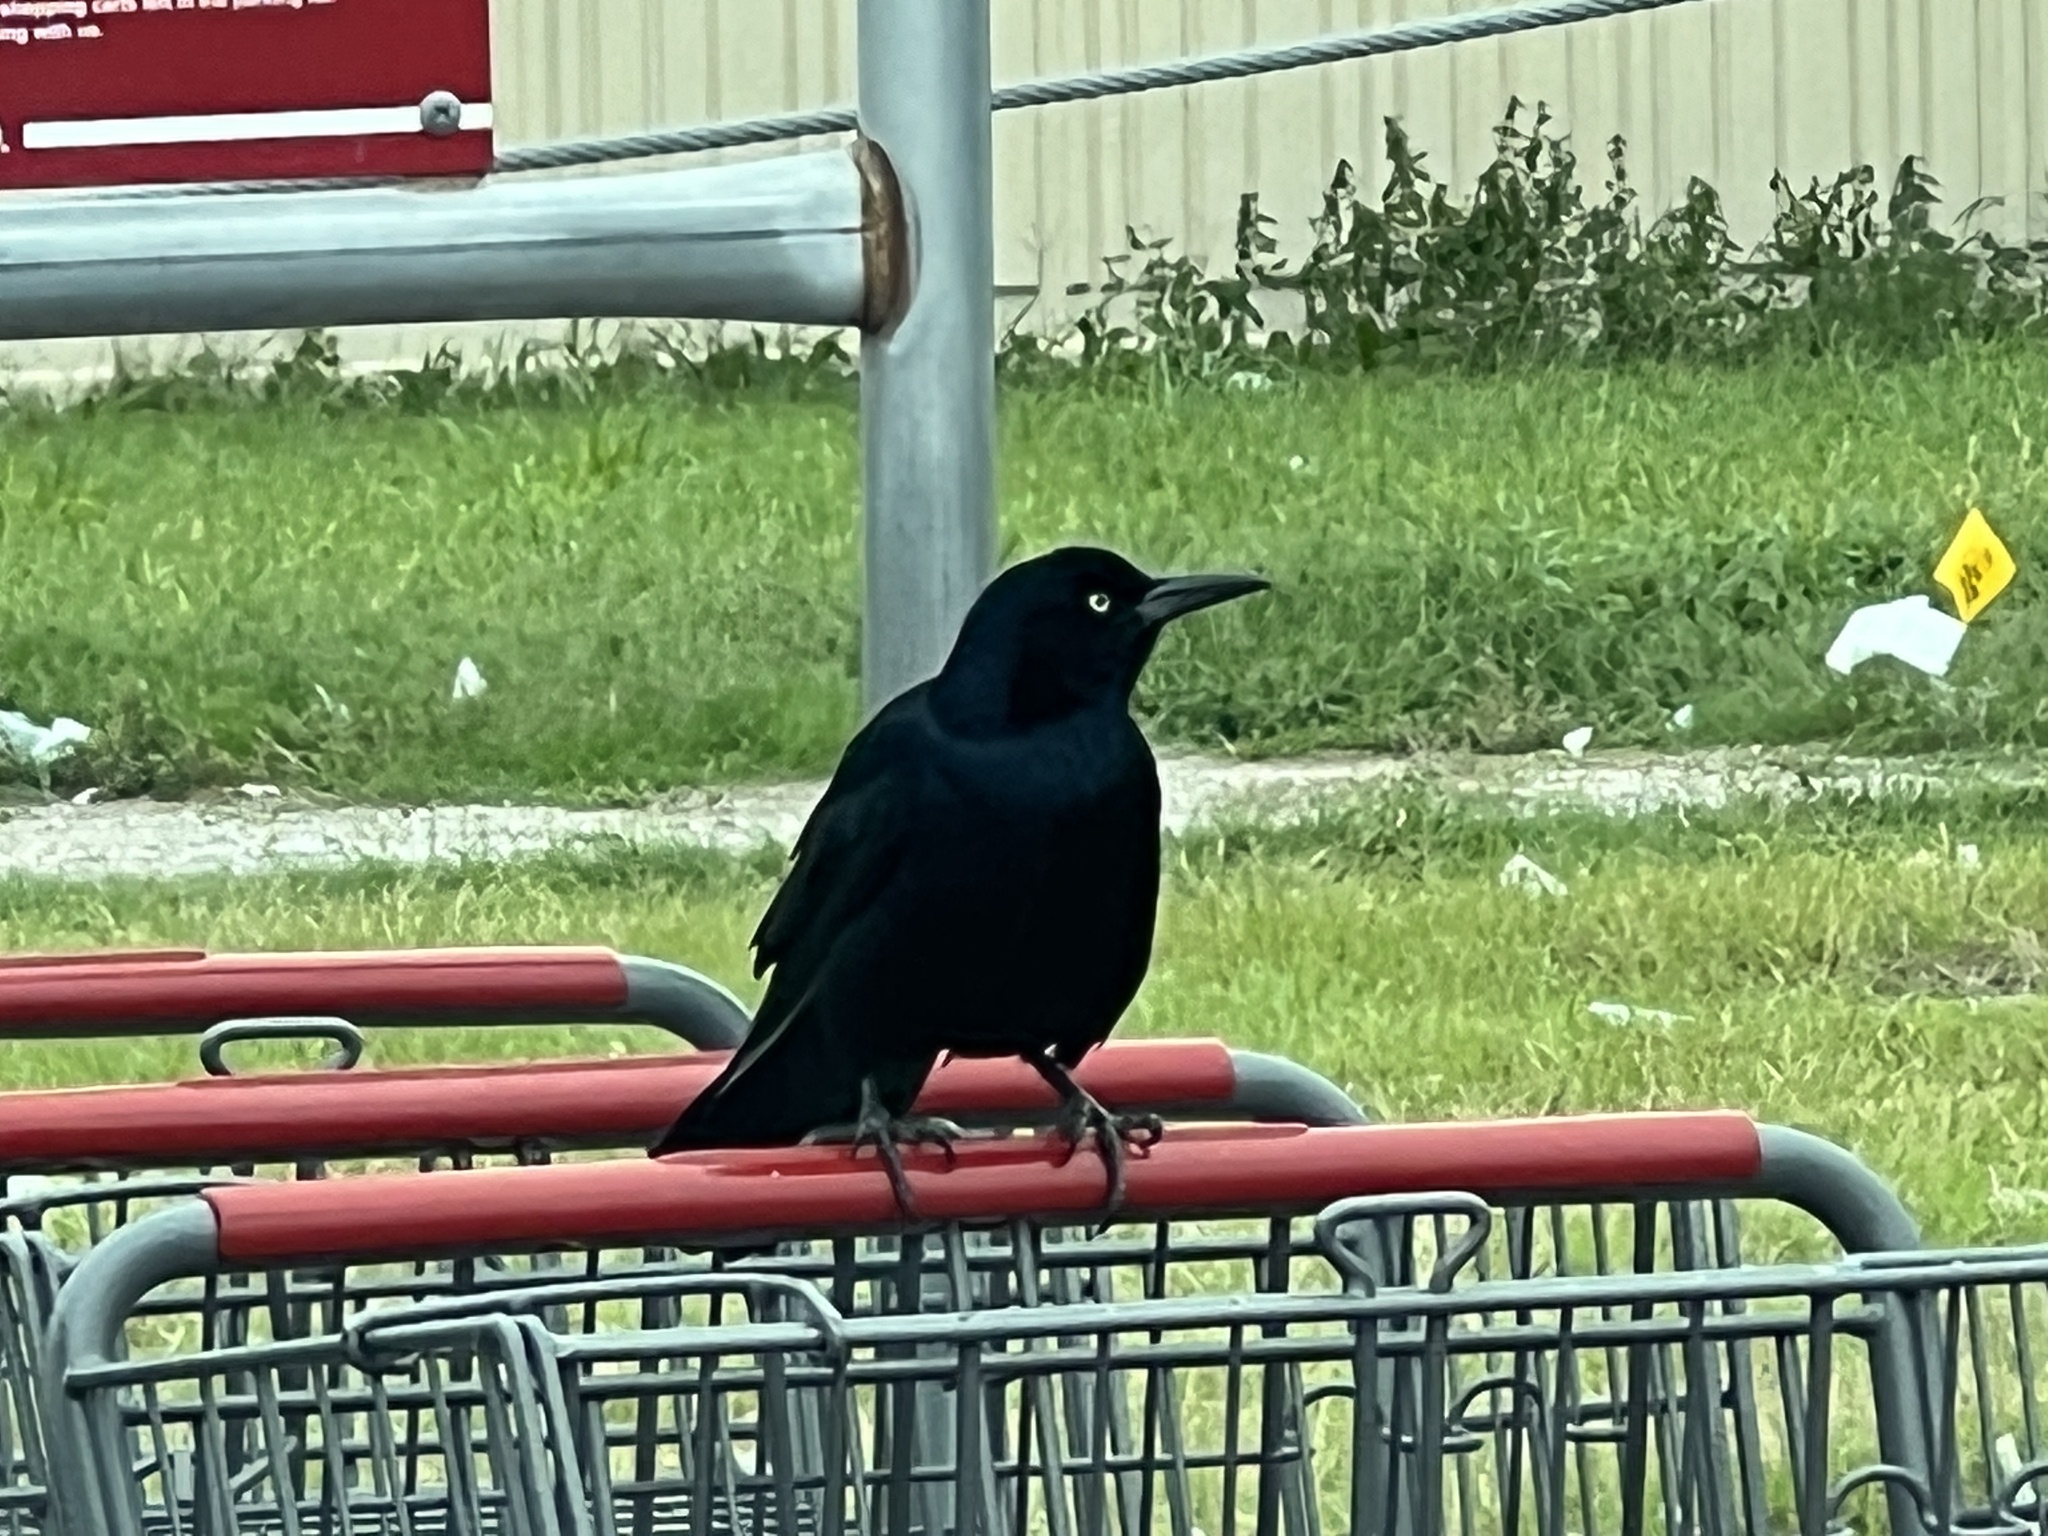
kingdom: Animalia
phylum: Chordata
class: Aves
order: Passeriformes
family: Icteridae
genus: Quiscalus
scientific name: Quiscalus mexicanus
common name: Great-tailed grackle
